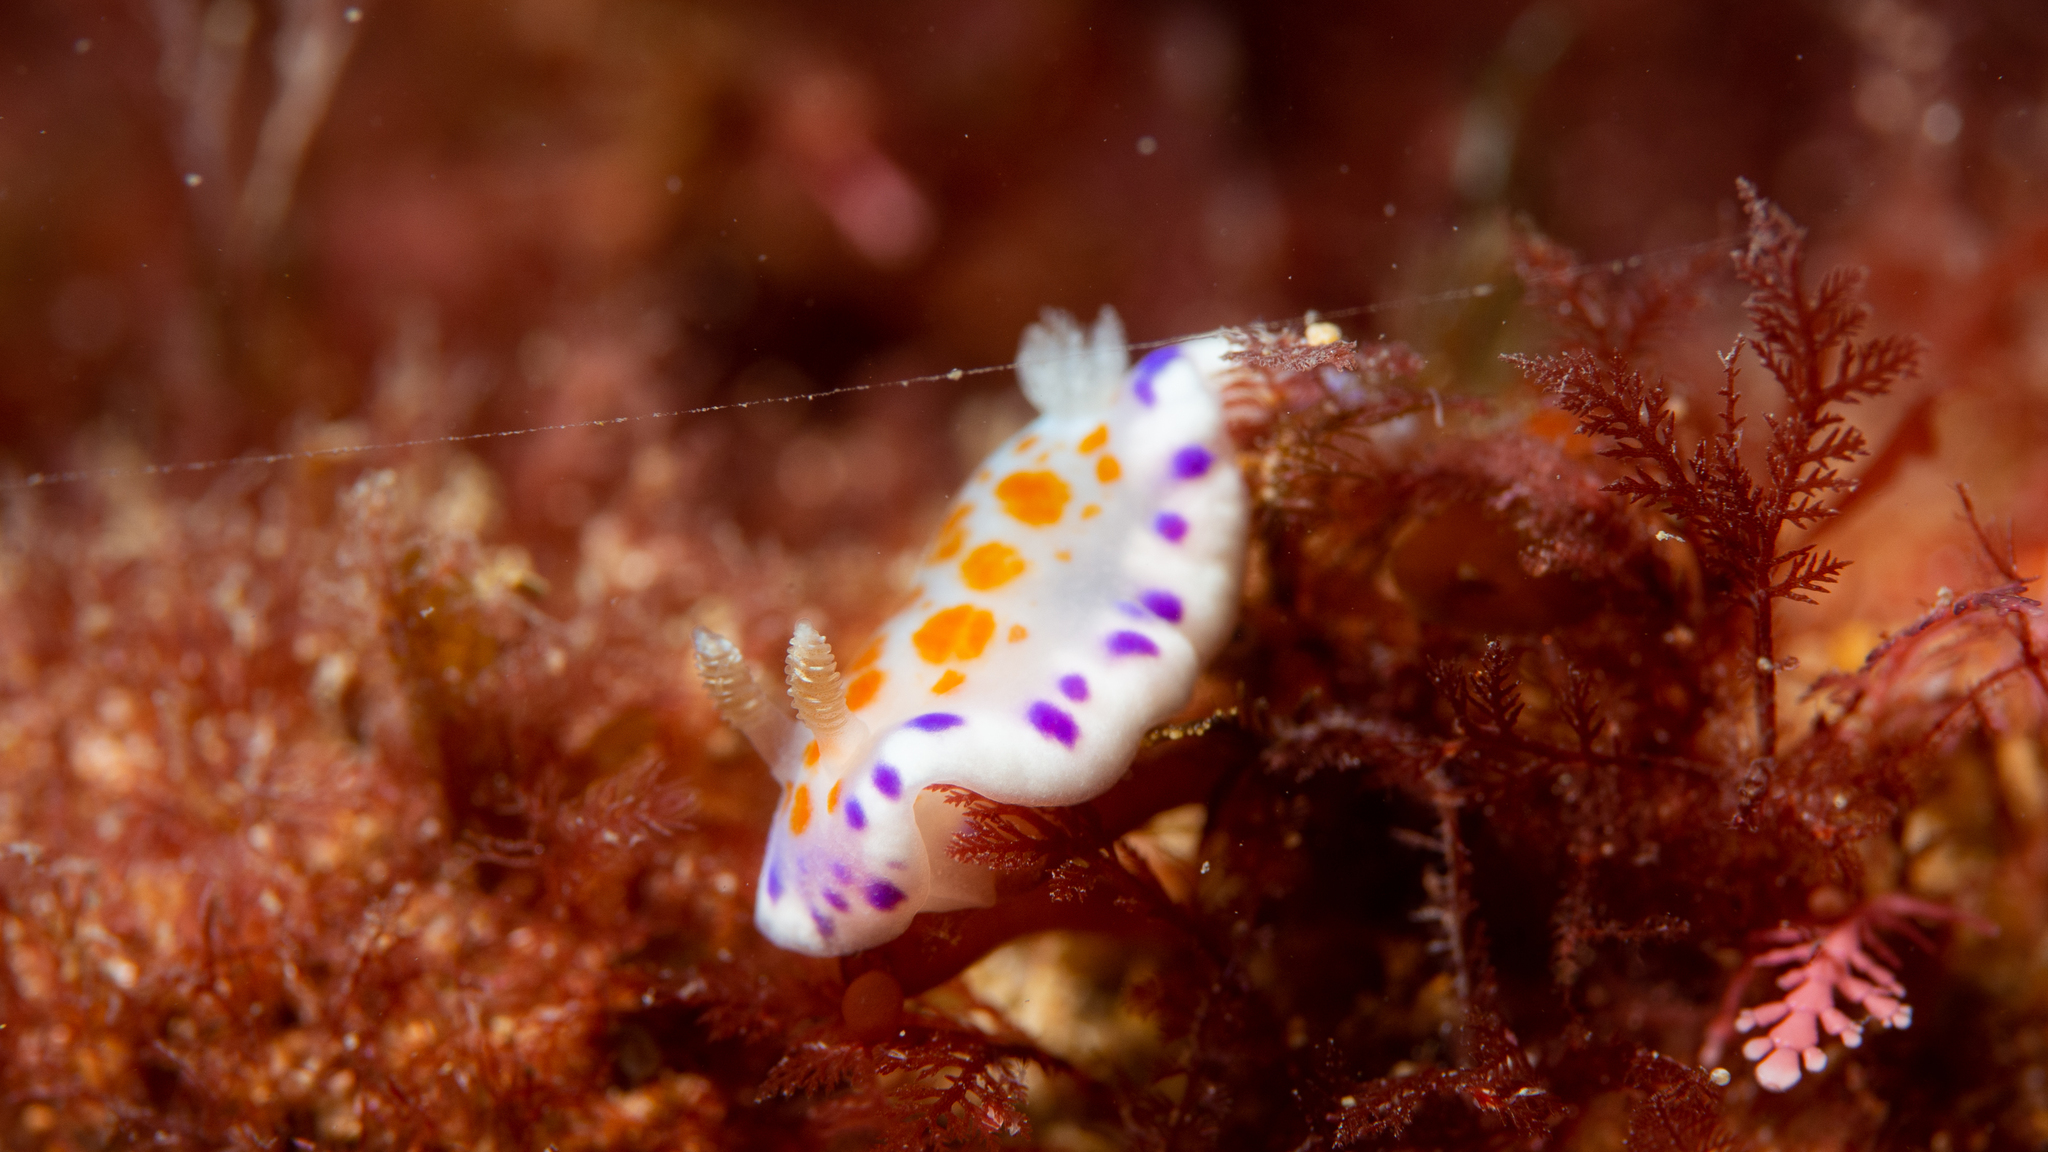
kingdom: Animalia
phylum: Mollusca
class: Gastropoda
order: Nudibranchia
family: Chromodorididae
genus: Chromodoris
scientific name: Chromodoris ambigua
